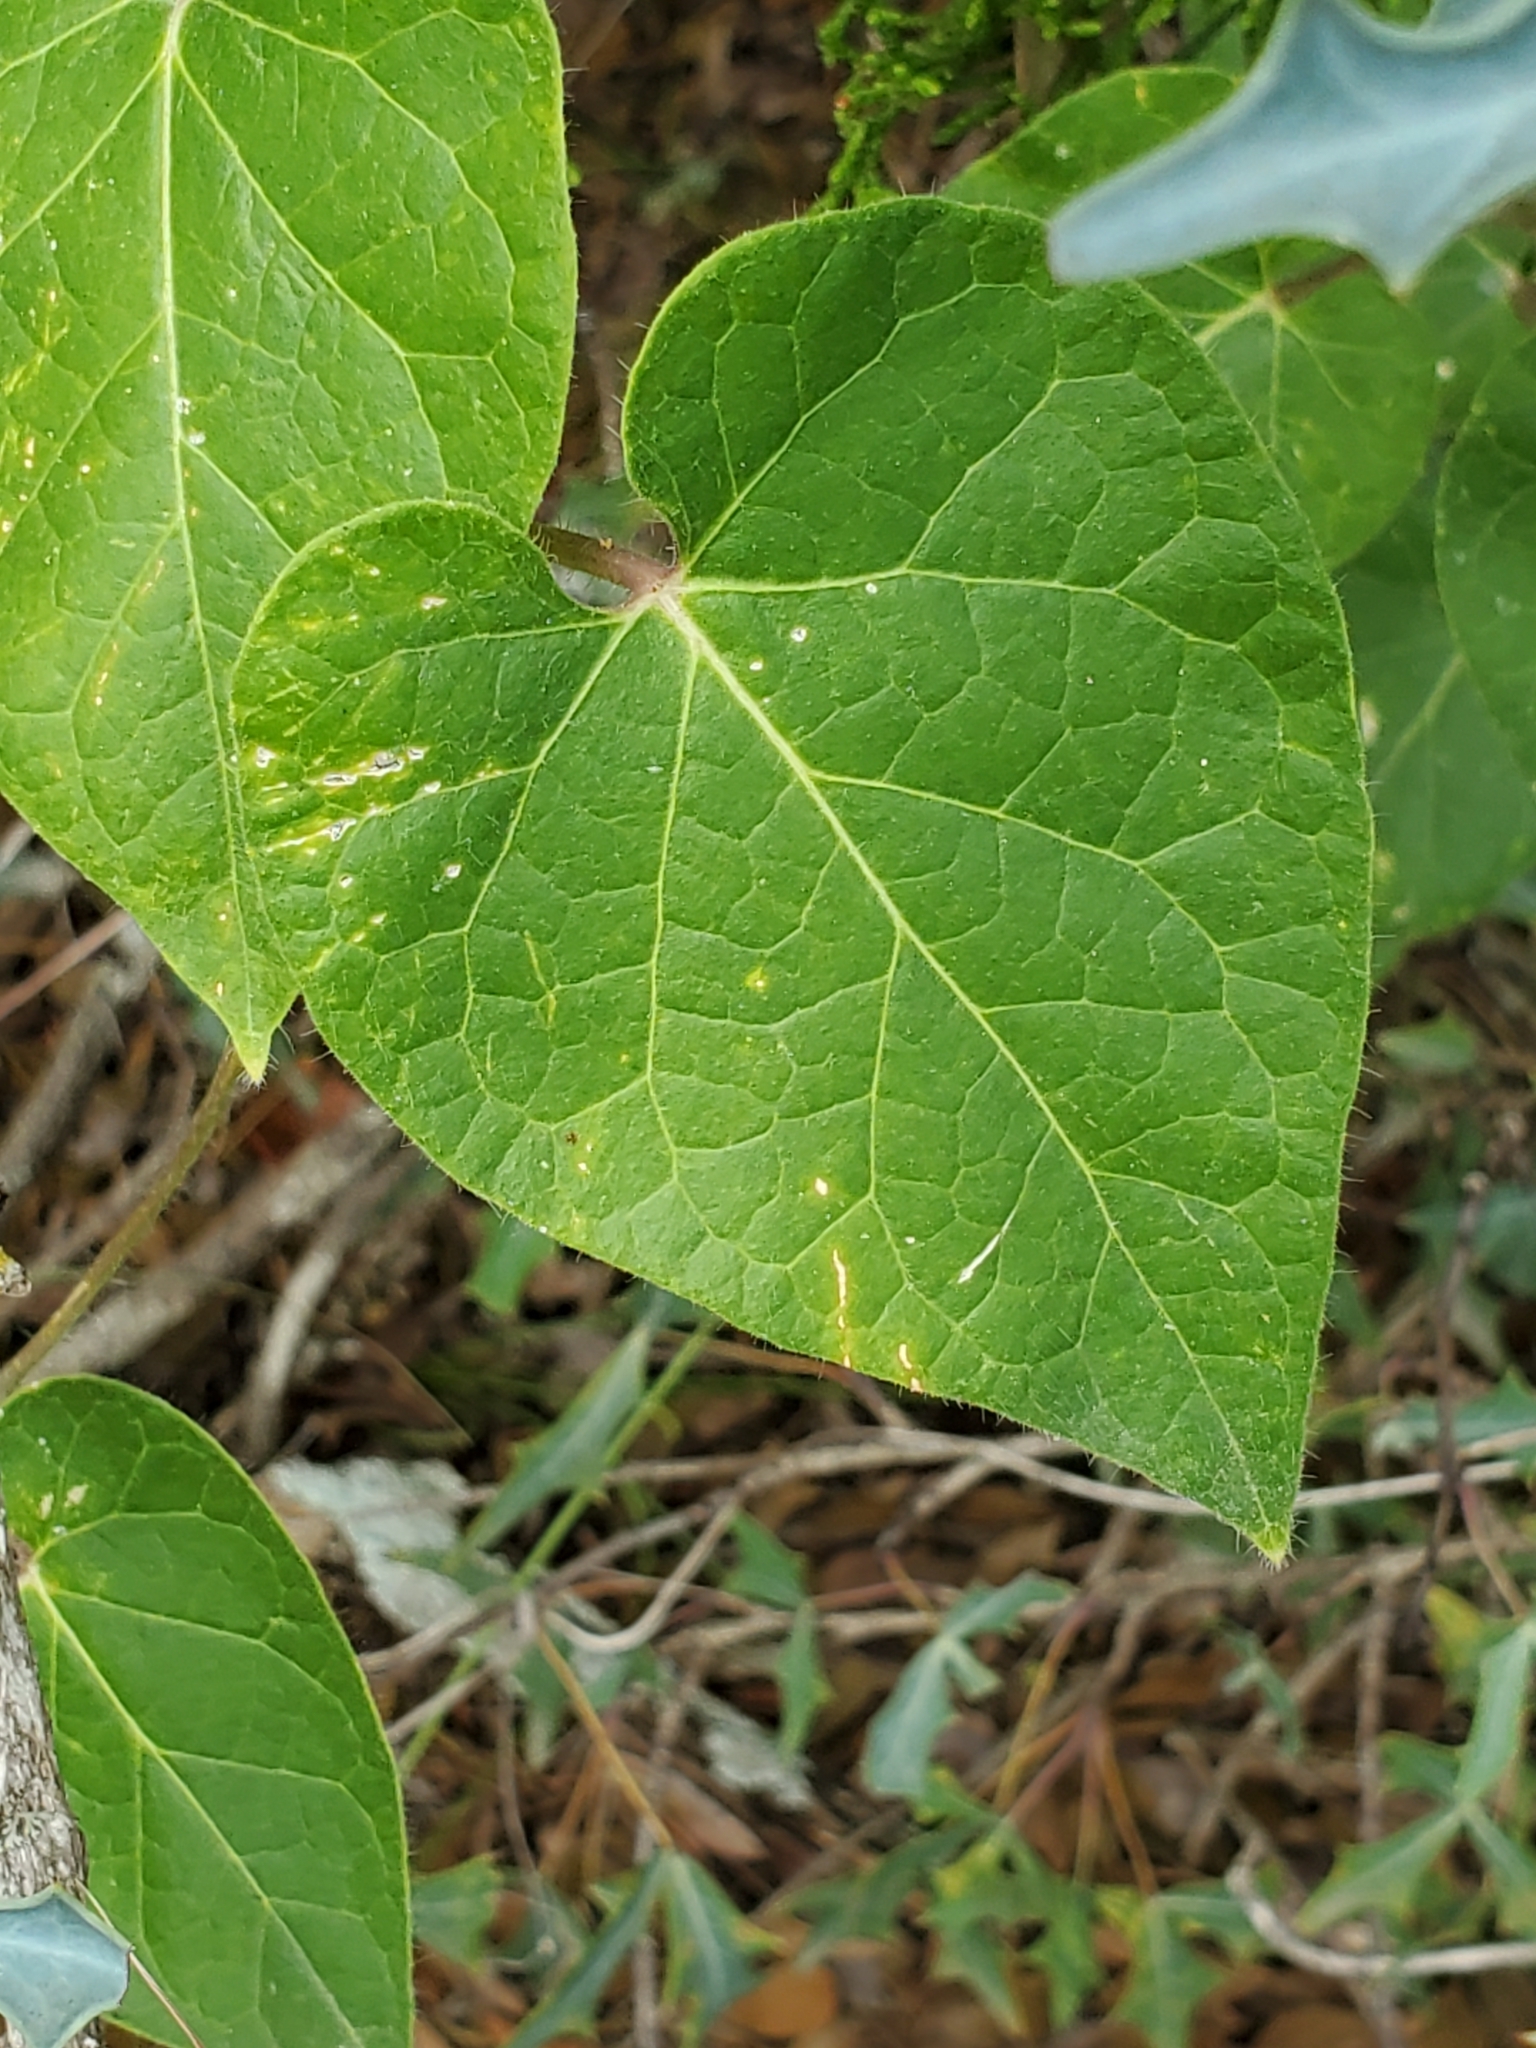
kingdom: Plantae
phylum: Tracheophyta
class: Magnoliopsida
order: Gentianales
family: Apocynaceae
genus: Dictyanthus
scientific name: Dictyanthus reticulatus
